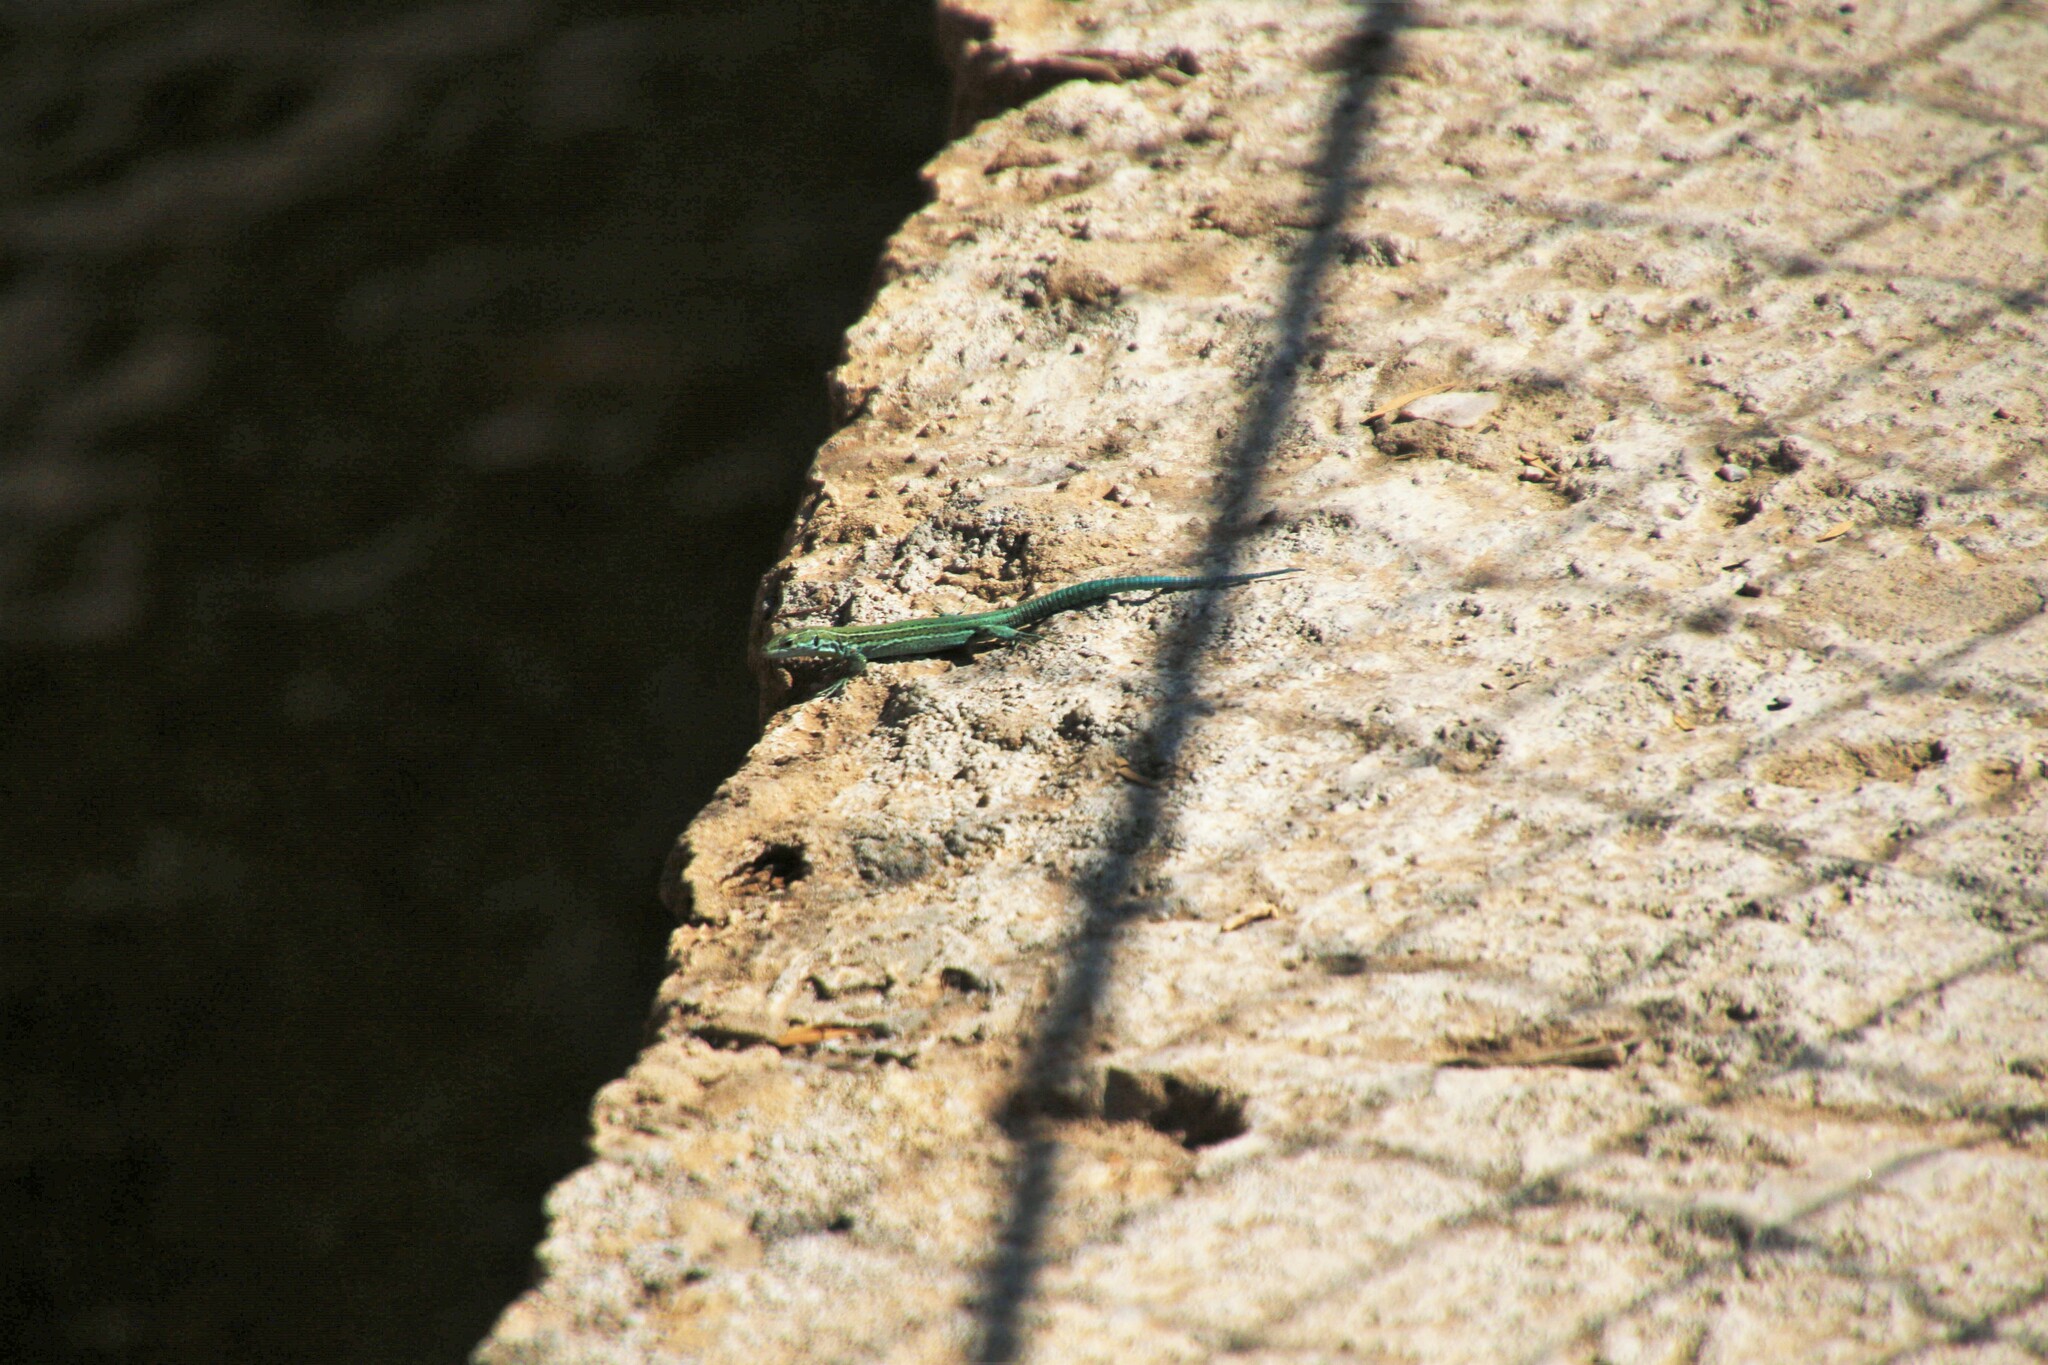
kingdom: Animalia
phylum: Chordata
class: Squamata
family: Lacertidae
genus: Podarcis
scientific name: Podarcis vaucheri
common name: Vaucher's wall lizard
